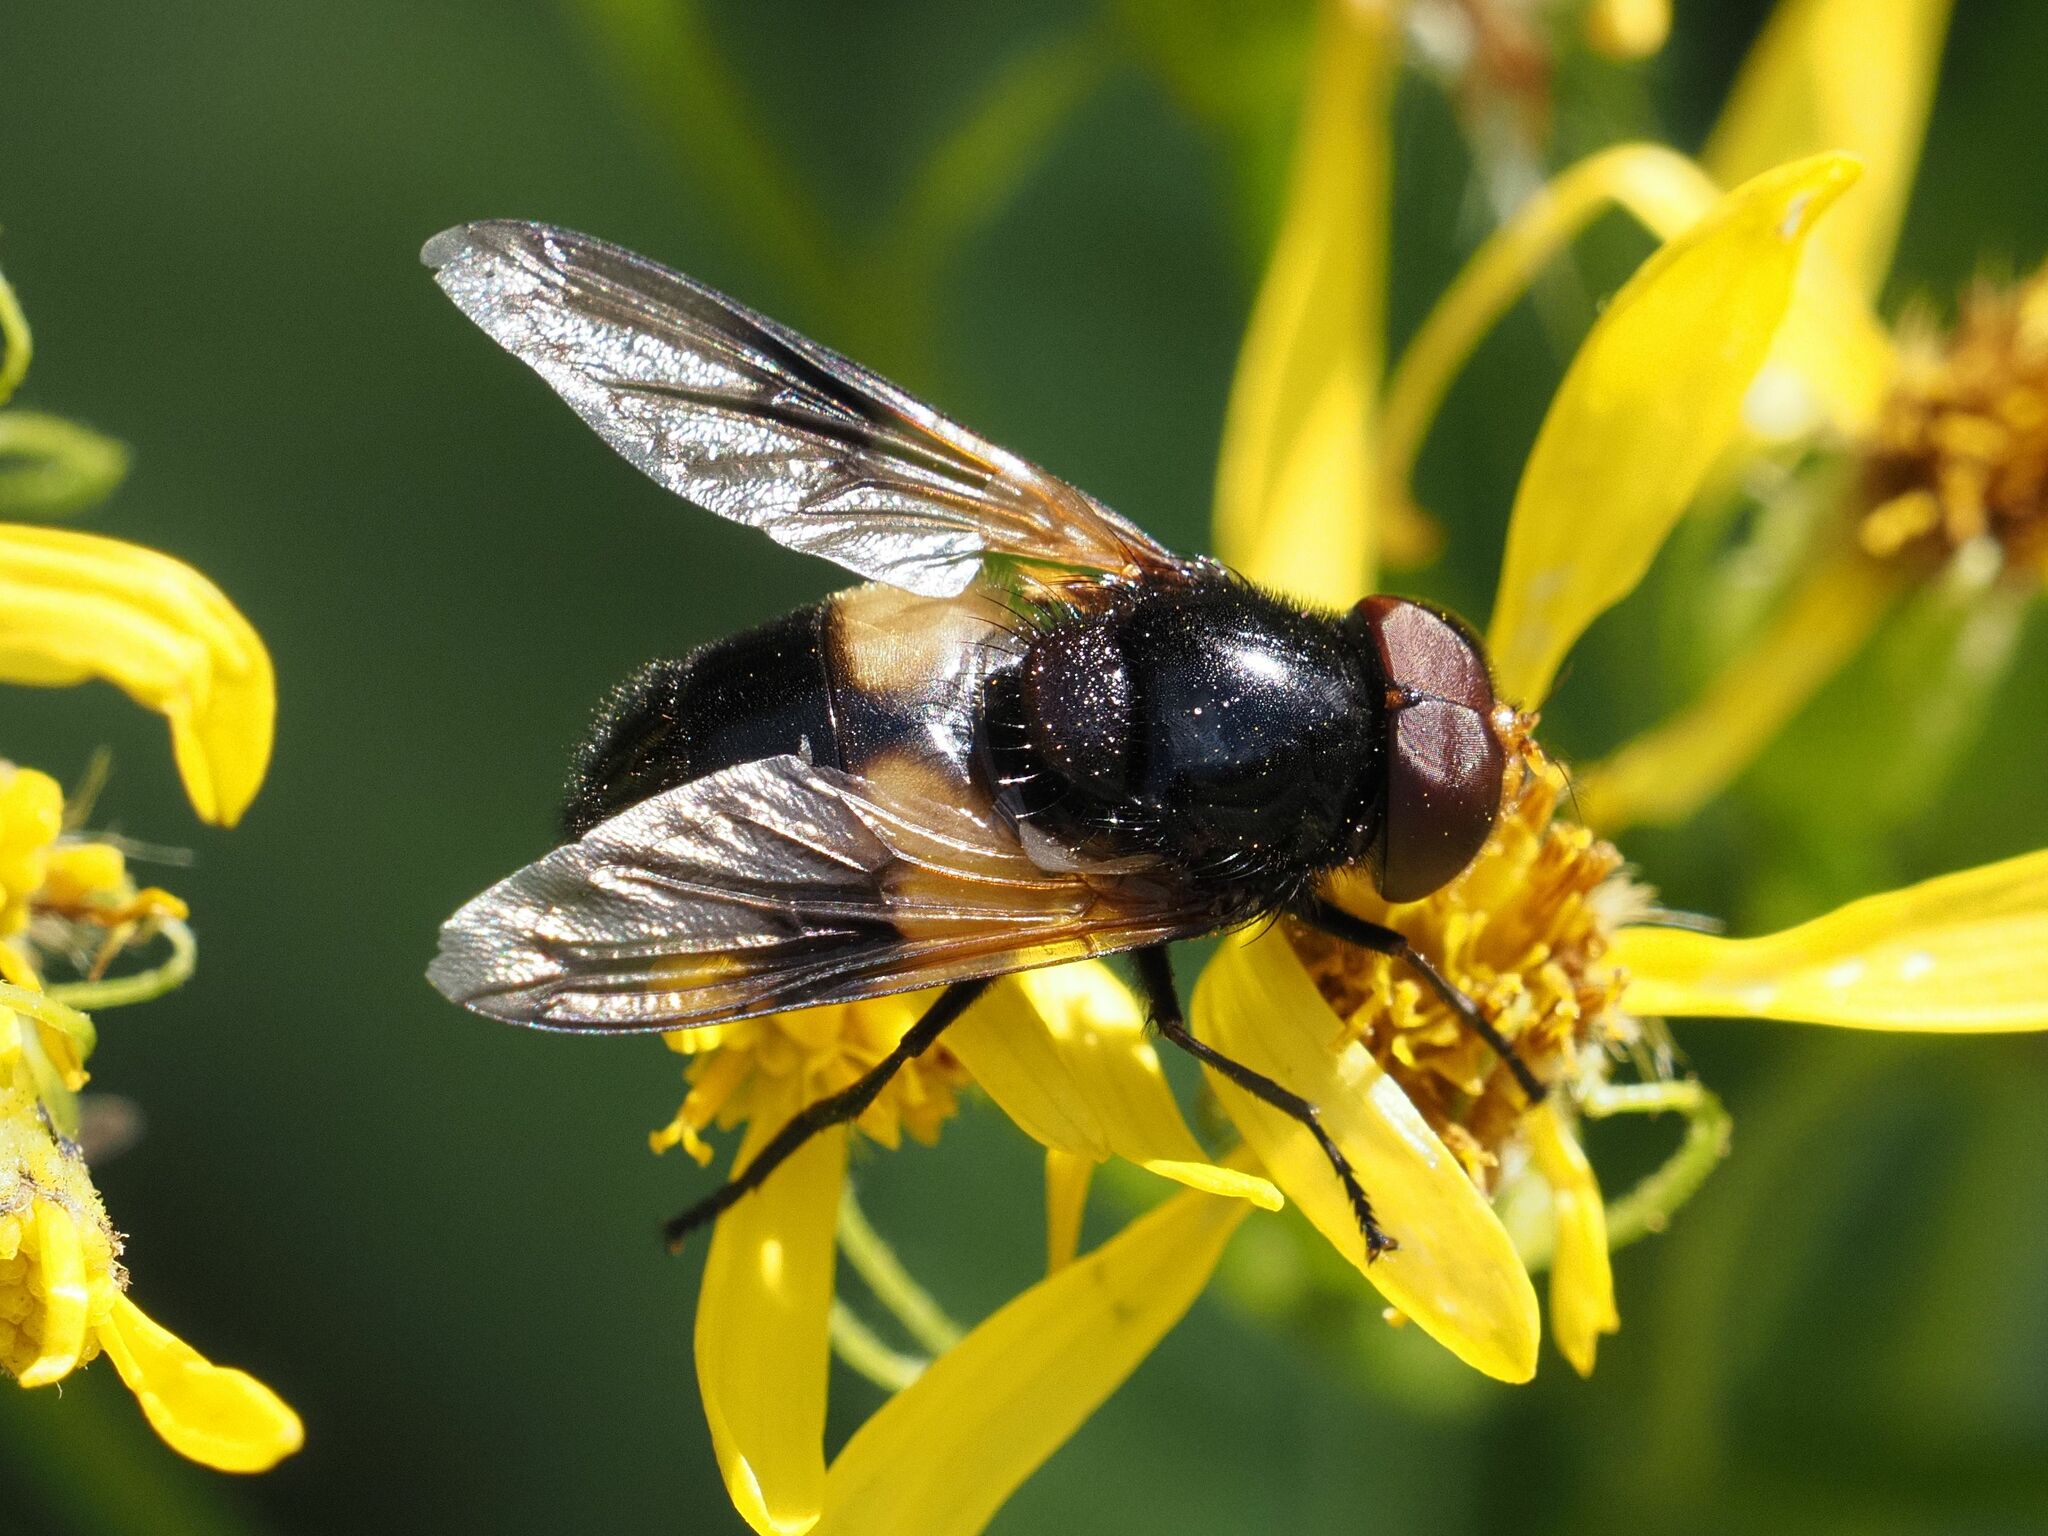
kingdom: Animalia
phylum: Arthropoda
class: Insecta
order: Diptera
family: Syrphidae
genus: Volucella
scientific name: Volucella pellucens
